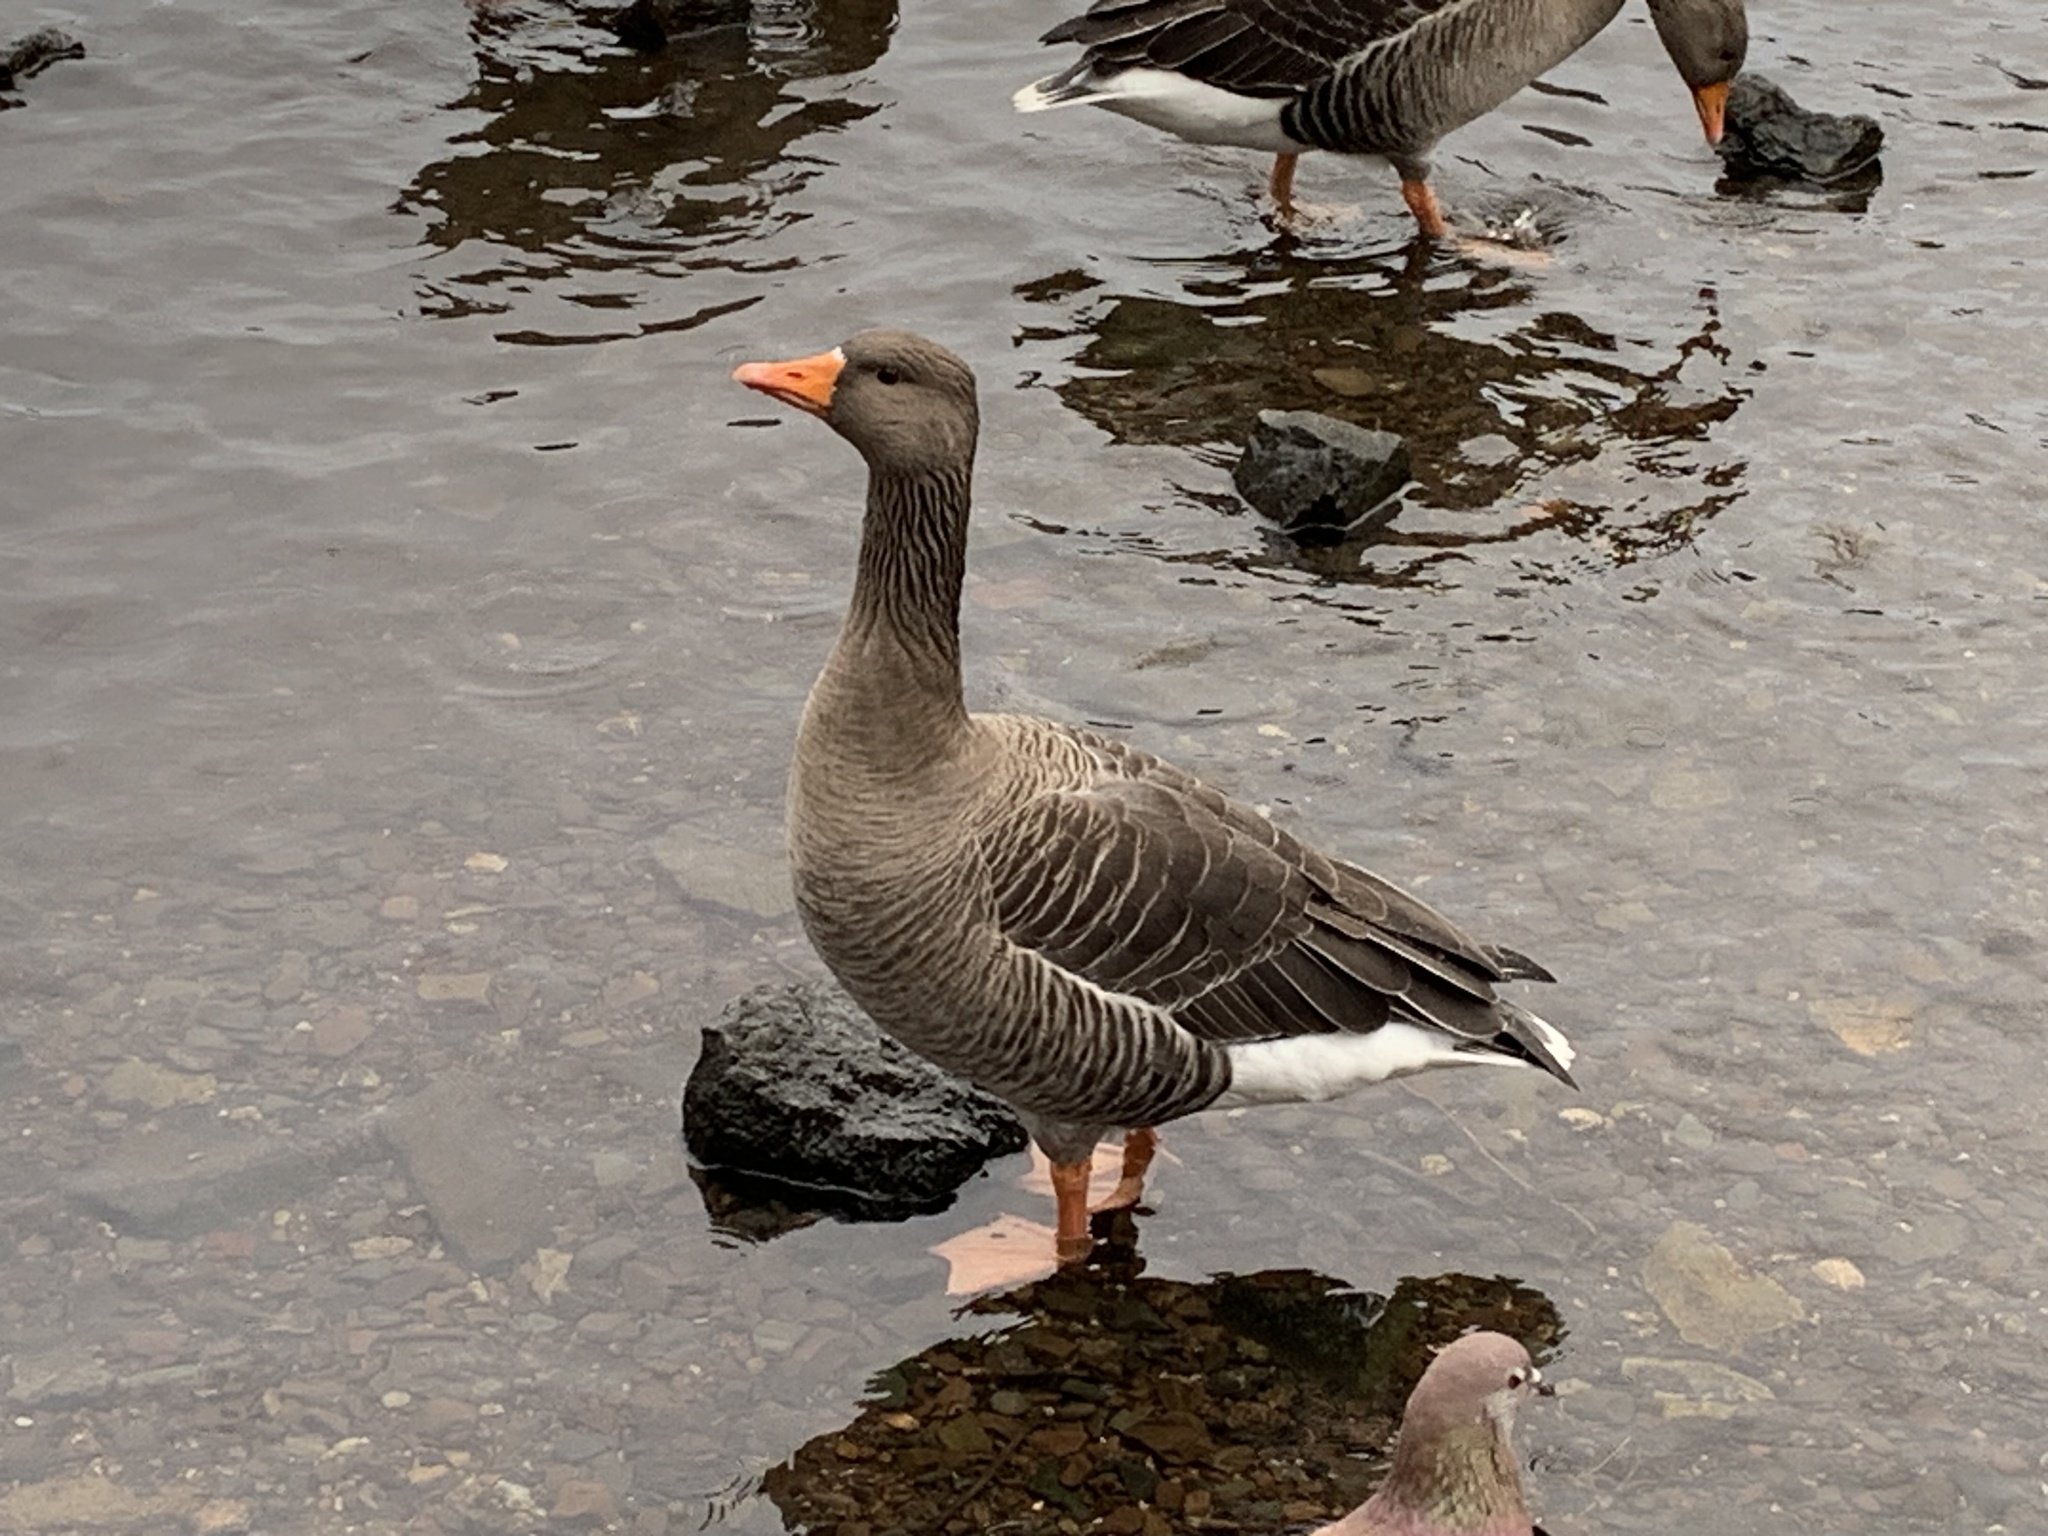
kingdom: Animalia
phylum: Chordata
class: Aves
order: Anseriformes
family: Anatidae
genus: Anser
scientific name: Anser anser
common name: Greylag goose
